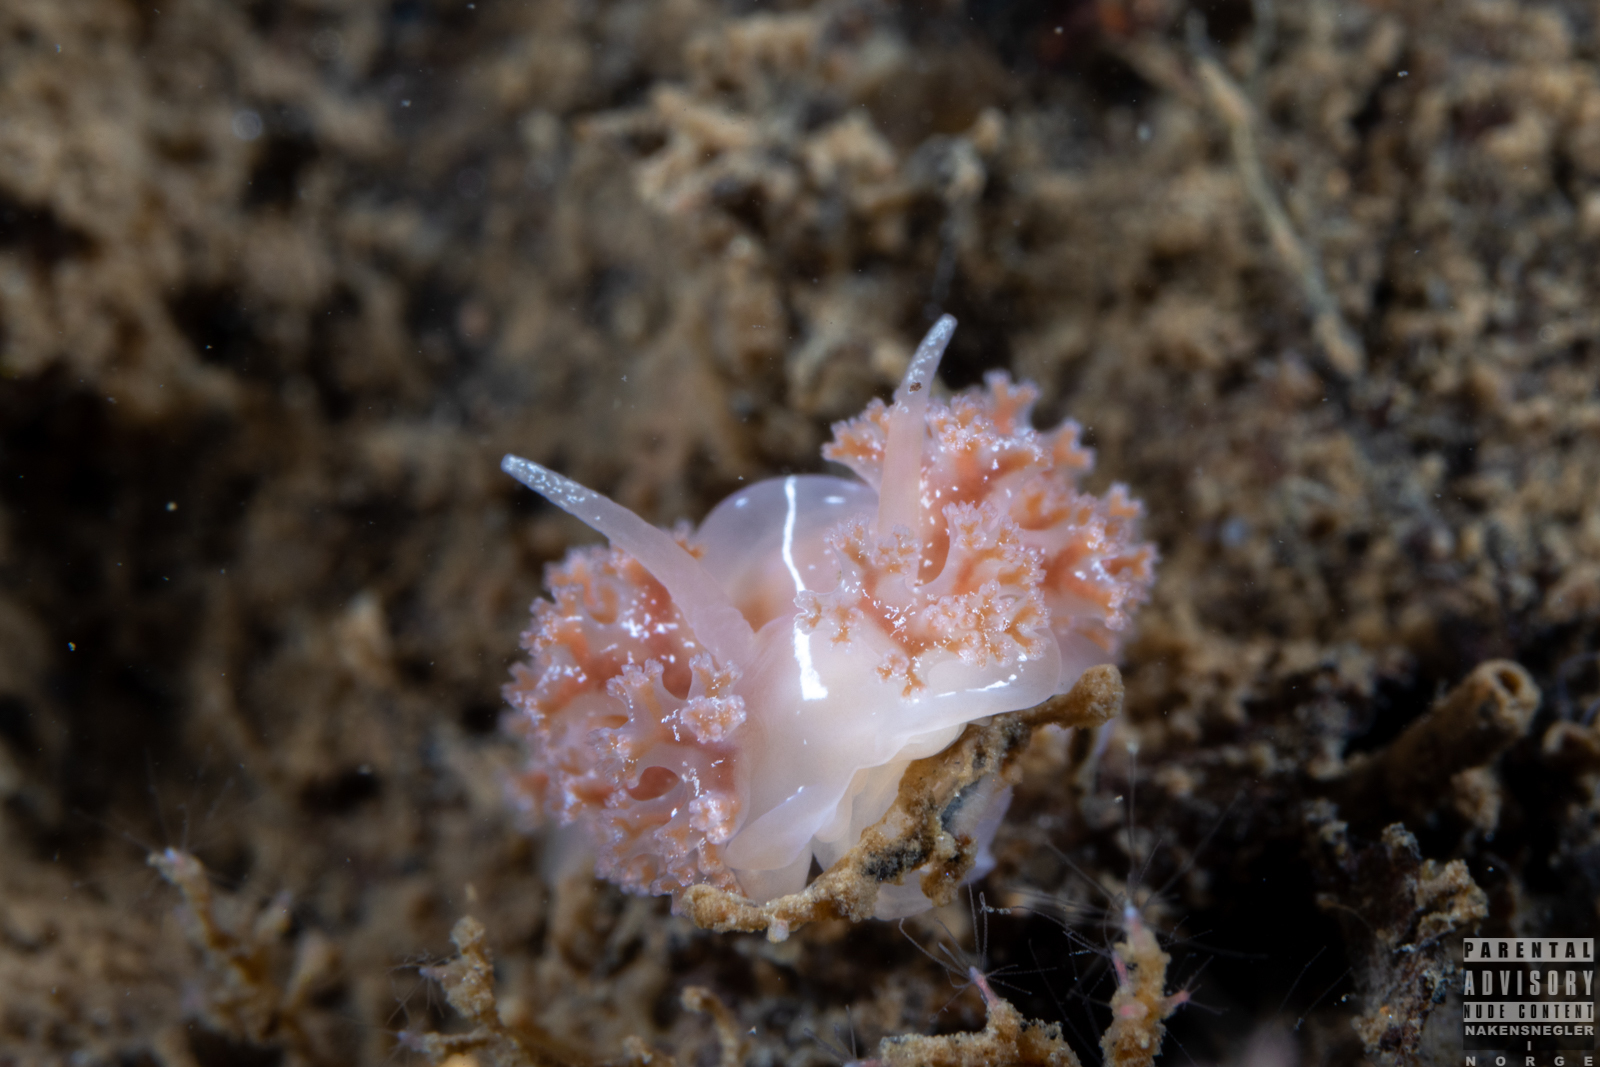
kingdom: Animalia
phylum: Mollusca
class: Gastropoda
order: Nudibranchia
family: Heroidae
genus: Hero
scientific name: Hero formosa
